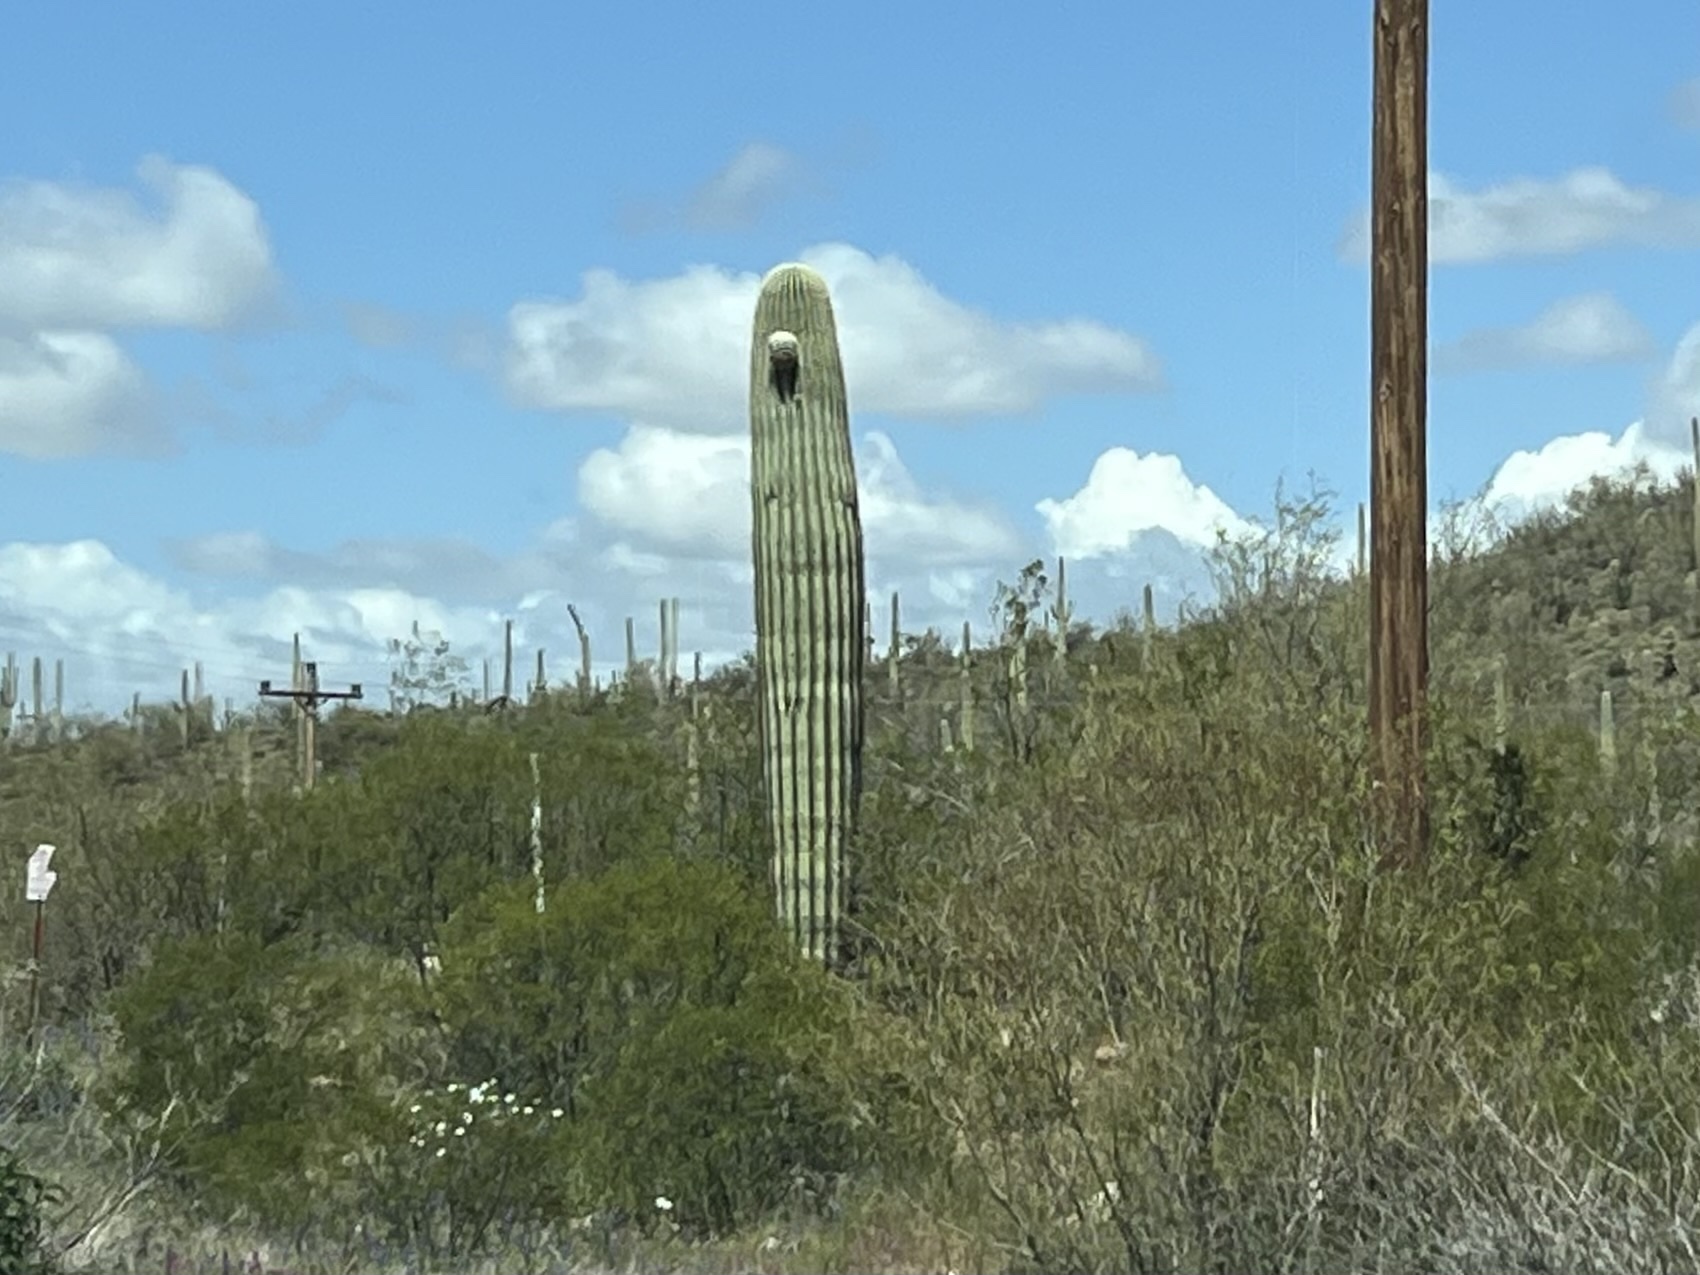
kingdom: Plantae
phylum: Tracheophyta
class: Magnoliopsida
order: Caryophyllales
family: Cactaceae
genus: Carnegiea
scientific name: Carnegiea gigantea
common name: Saguaro
